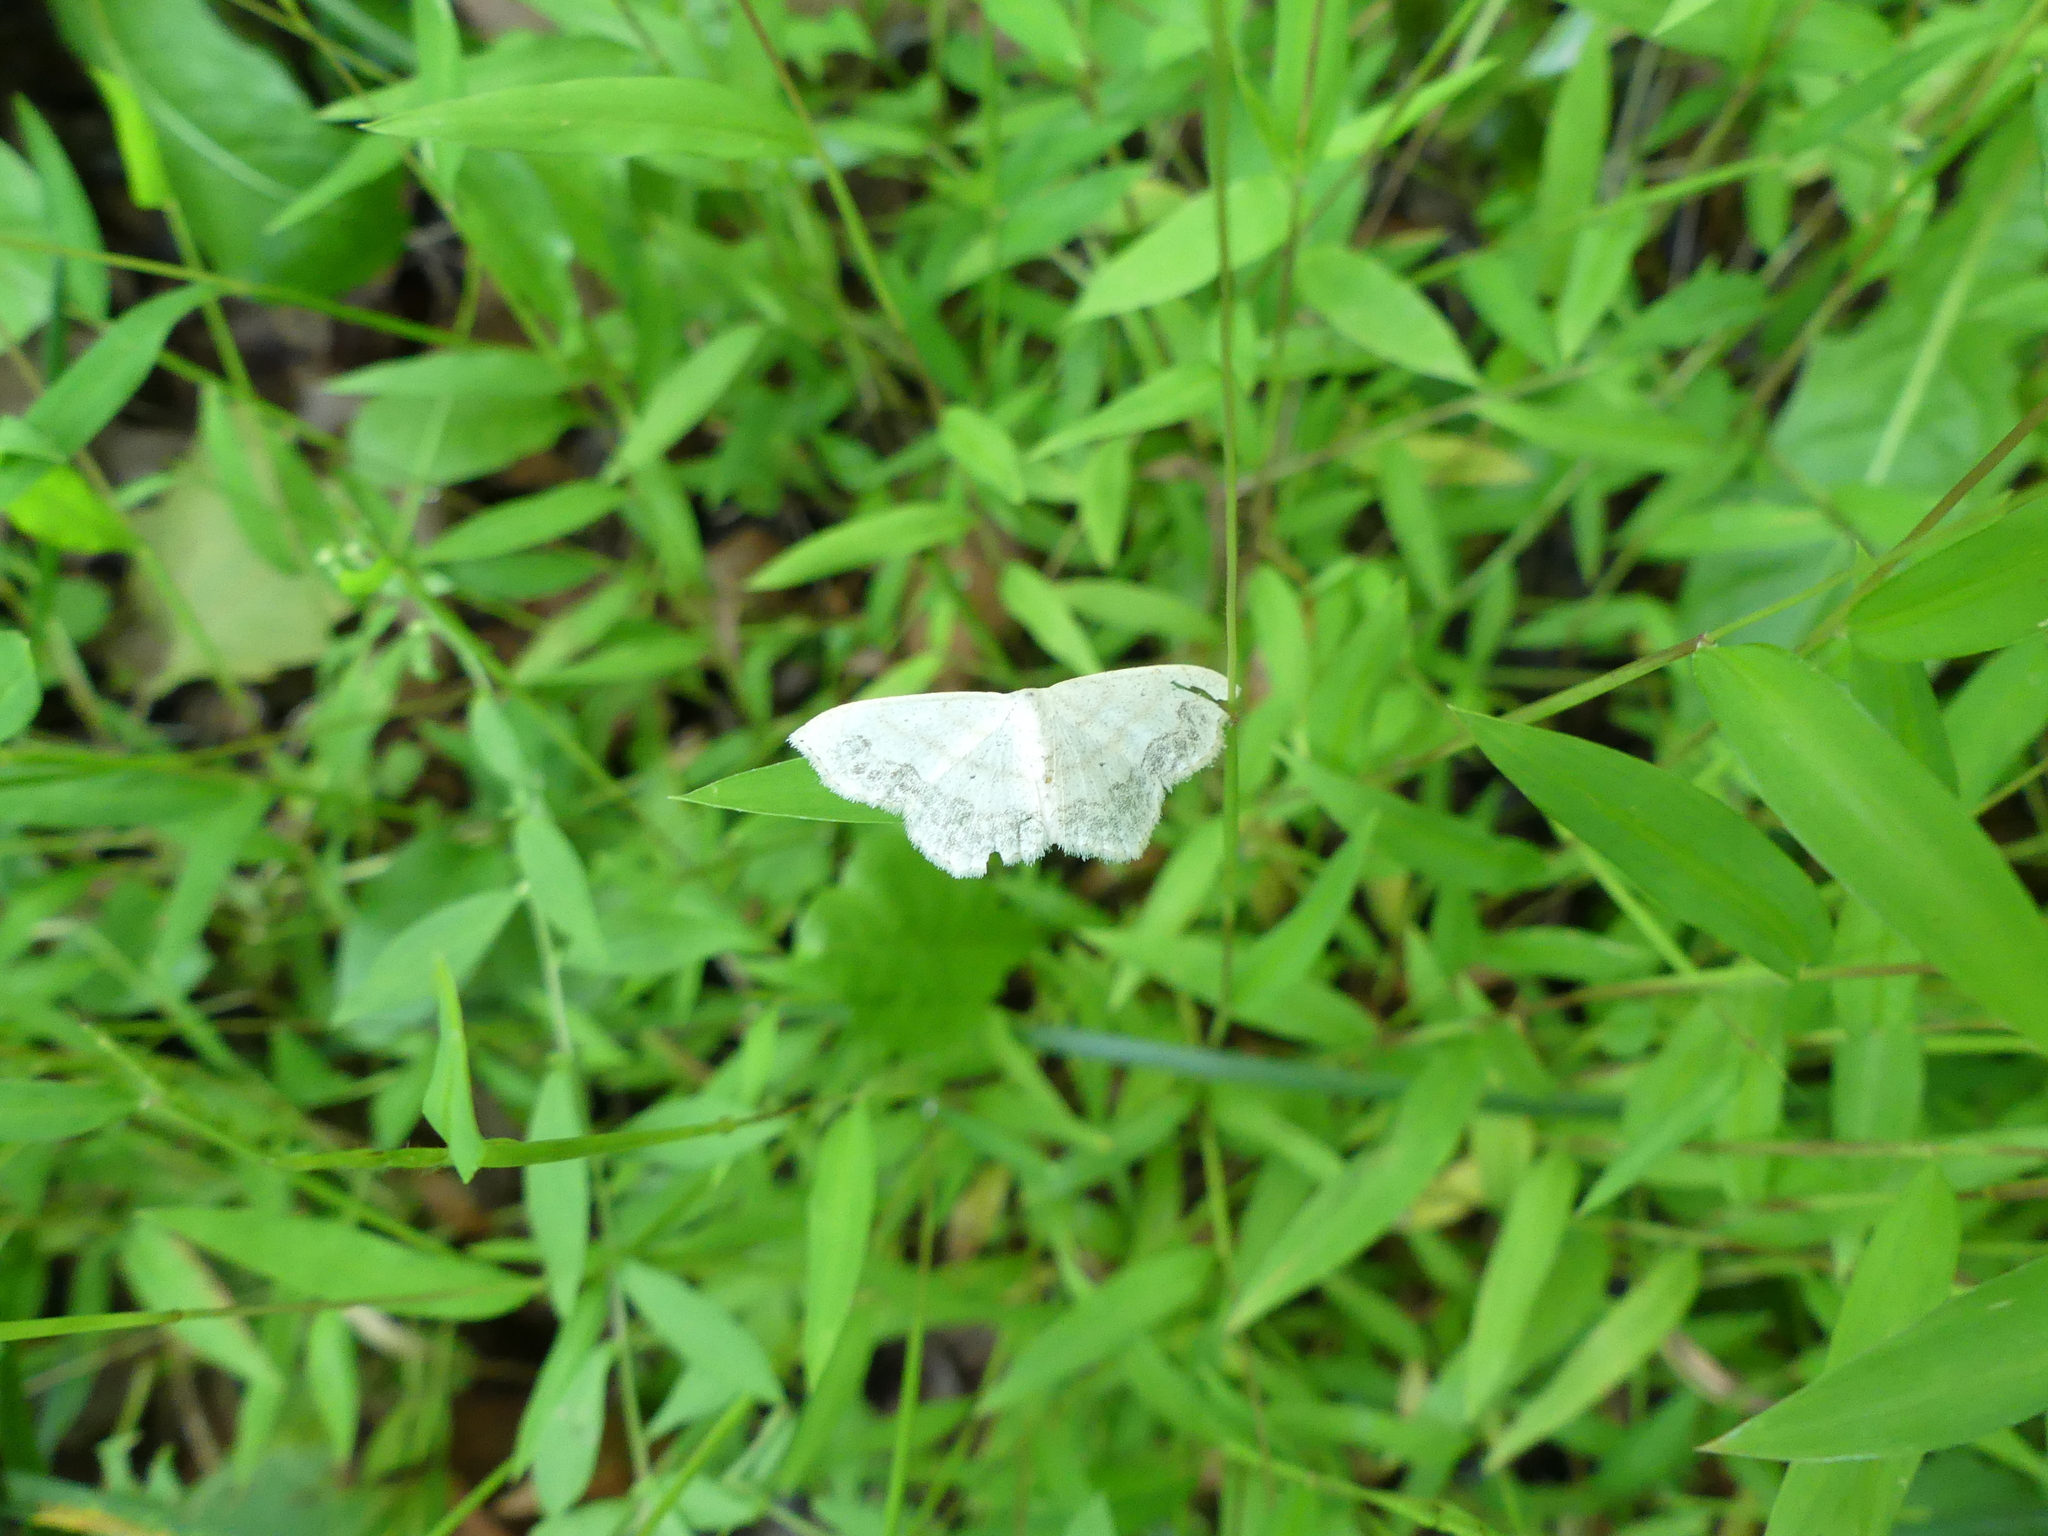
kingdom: Animalia
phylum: Arthropoda
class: Insecta
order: Lepidoptera
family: Geometridae
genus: Scopula
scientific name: Scopula limboundata
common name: Large lace border
